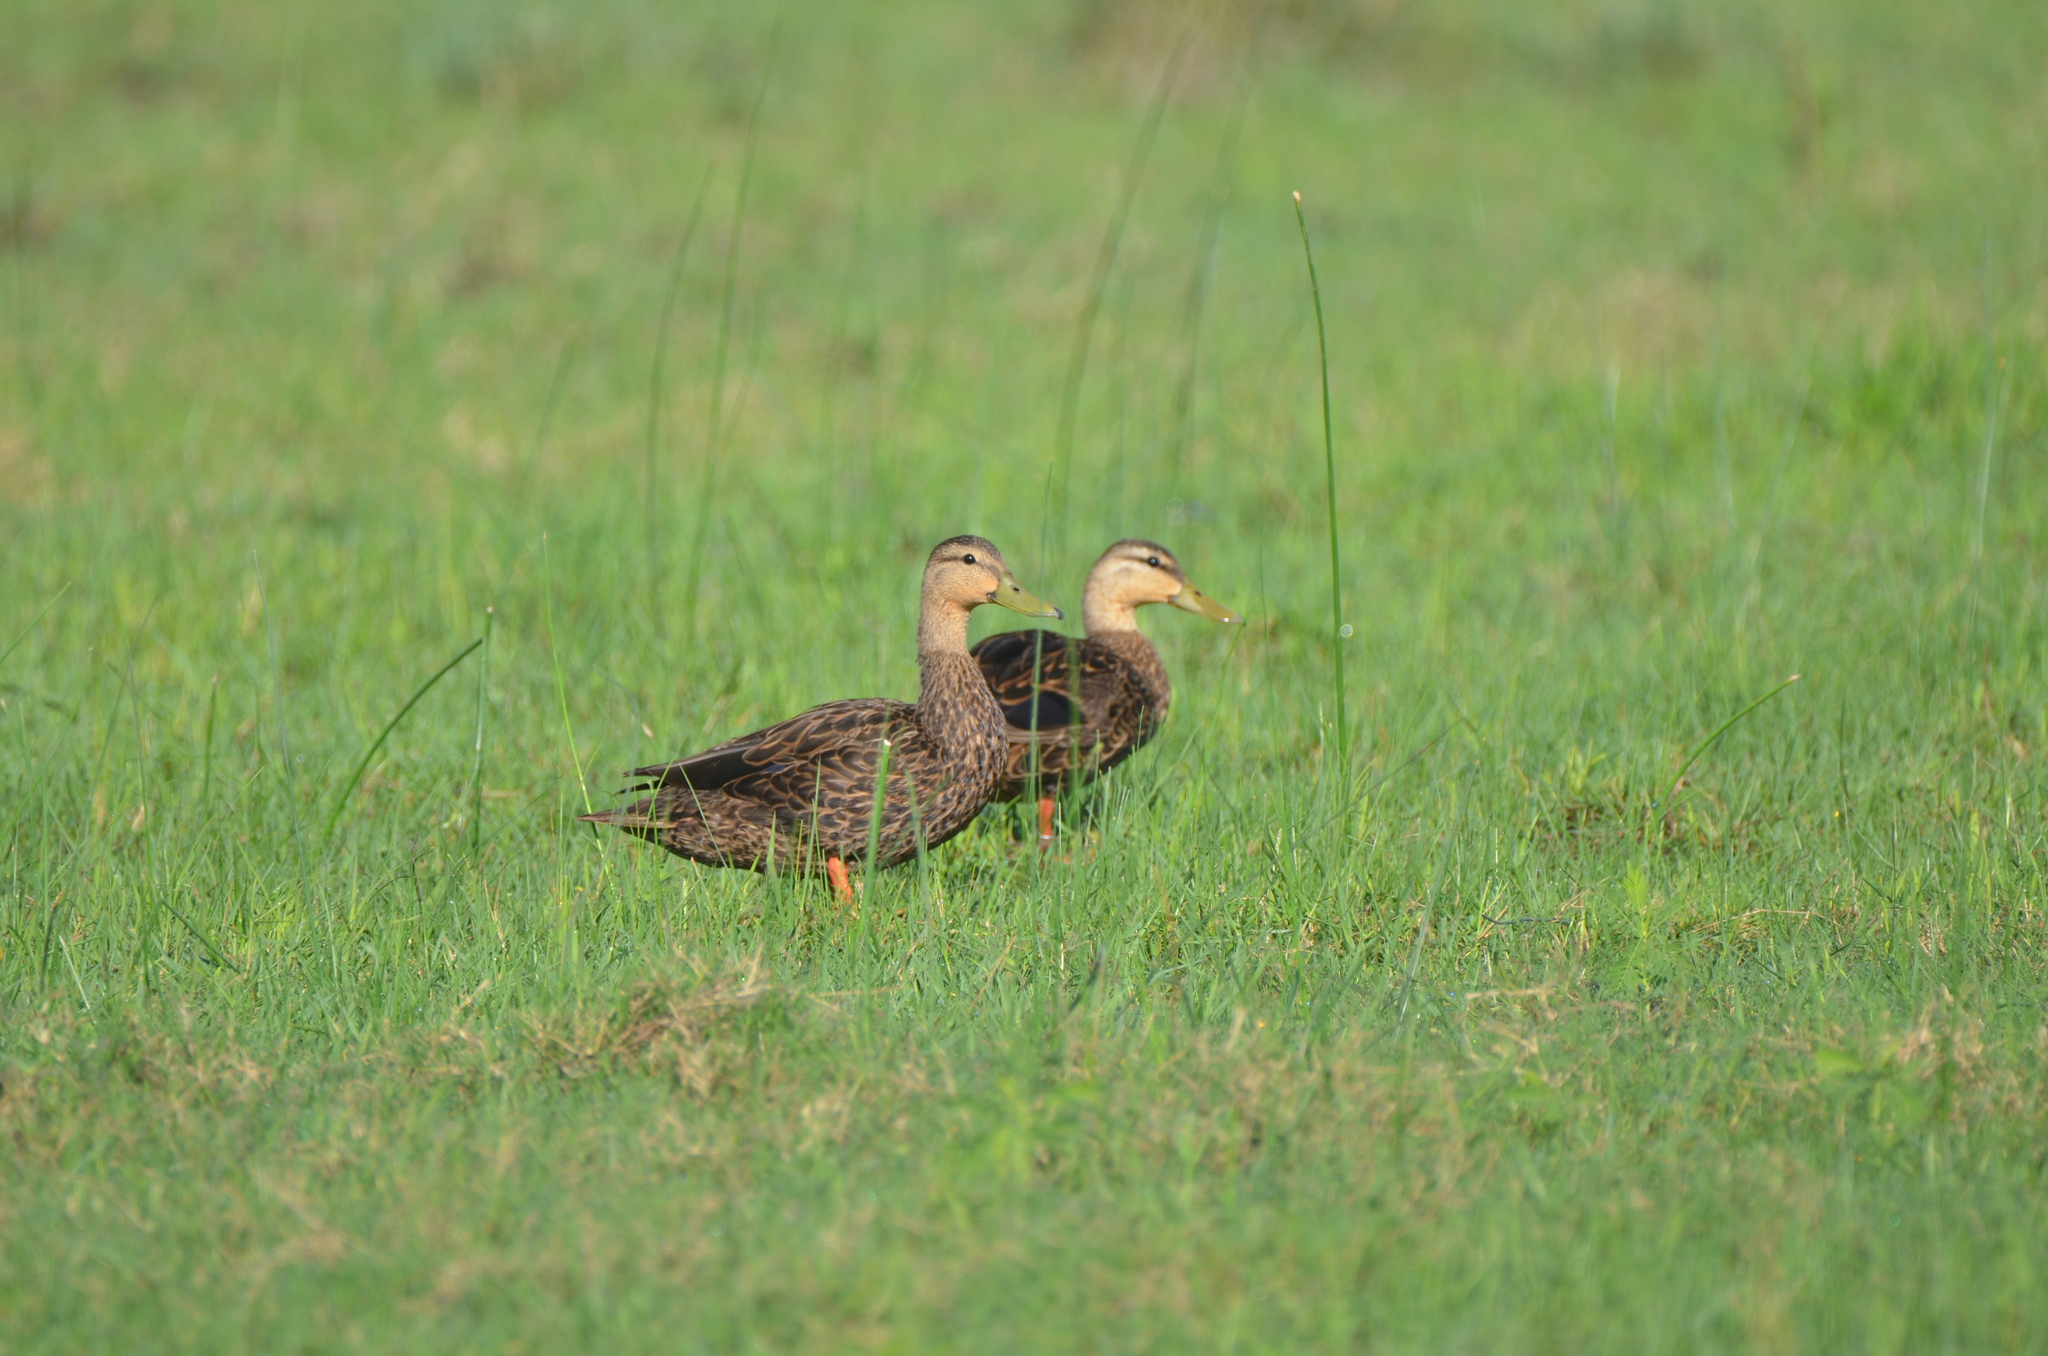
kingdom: Animalia
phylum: Chordata
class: Aves
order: Anseriformes
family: Anatidae
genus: Anas
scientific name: Anas fulvigula
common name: Mottled duck
